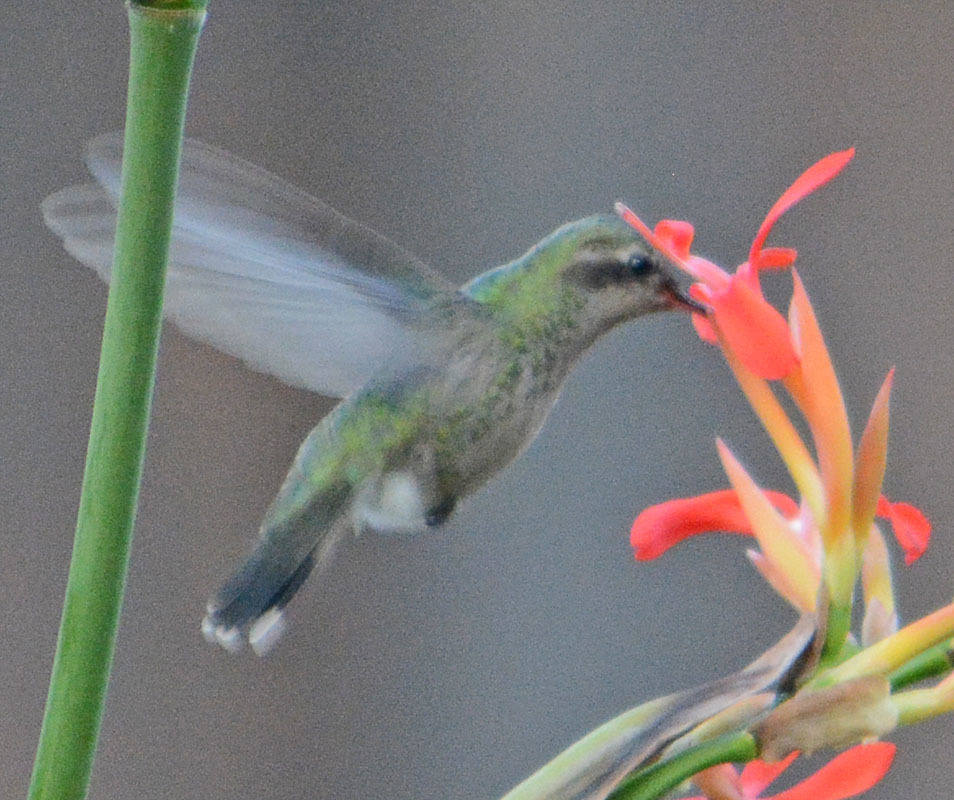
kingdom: Animalia
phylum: Chordata
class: Aves
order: Apodiformes
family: Trochilidae
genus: Cynanthus
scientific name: Cynanthus latirostris
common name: Broad-billed hummingbird
